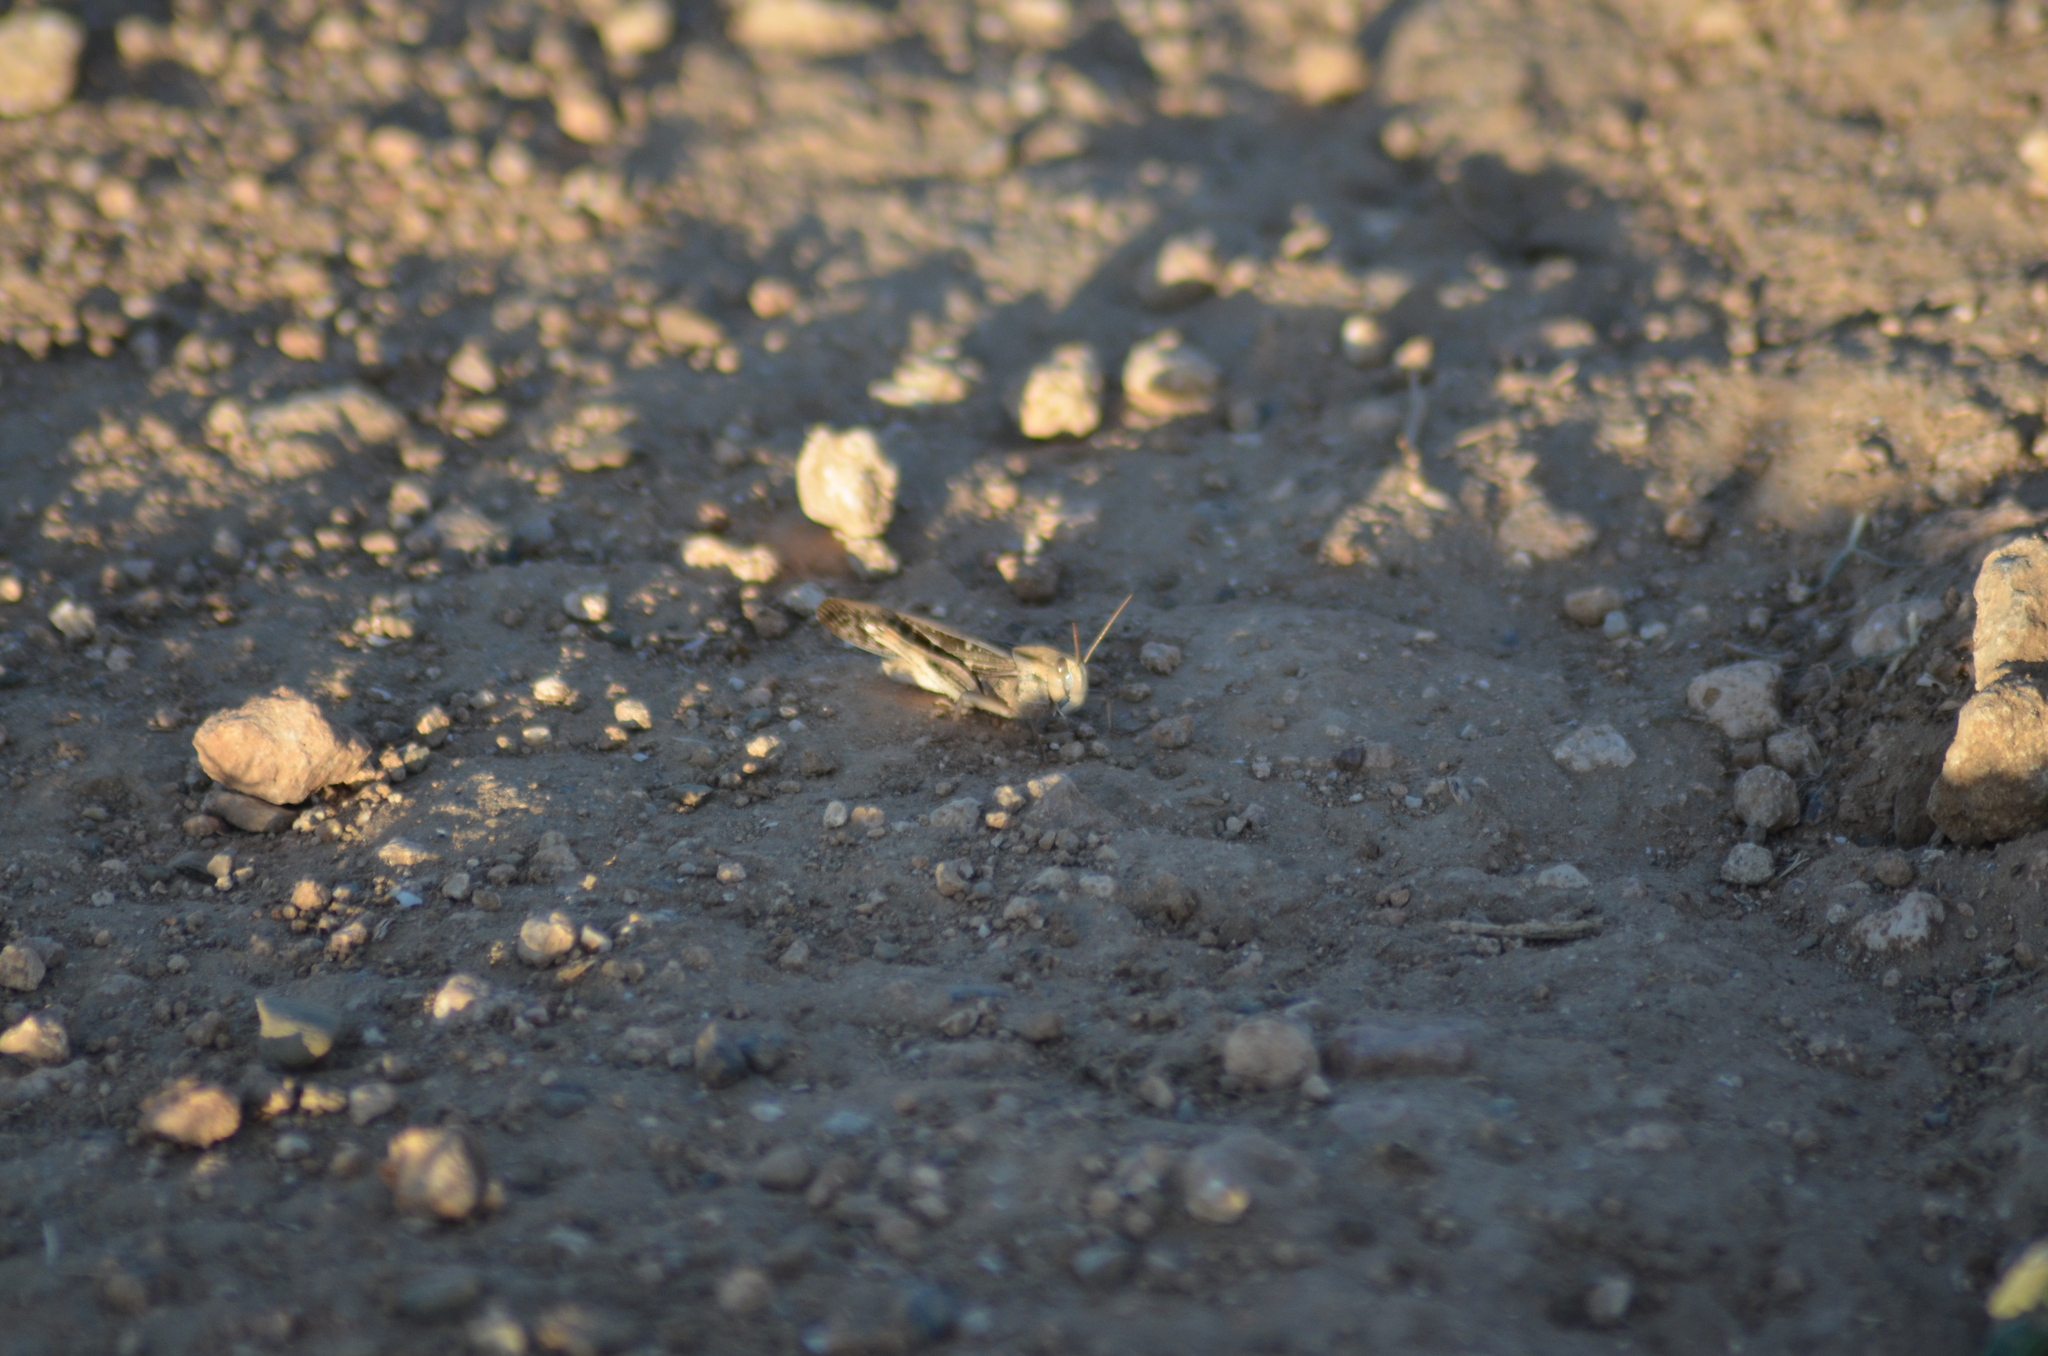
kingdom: Animalia
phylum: Arthropoda
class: Insecta
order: Orthoptera
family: Acrididae
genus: Locusta
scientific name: Locusta migratoria
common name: Migratory locust
